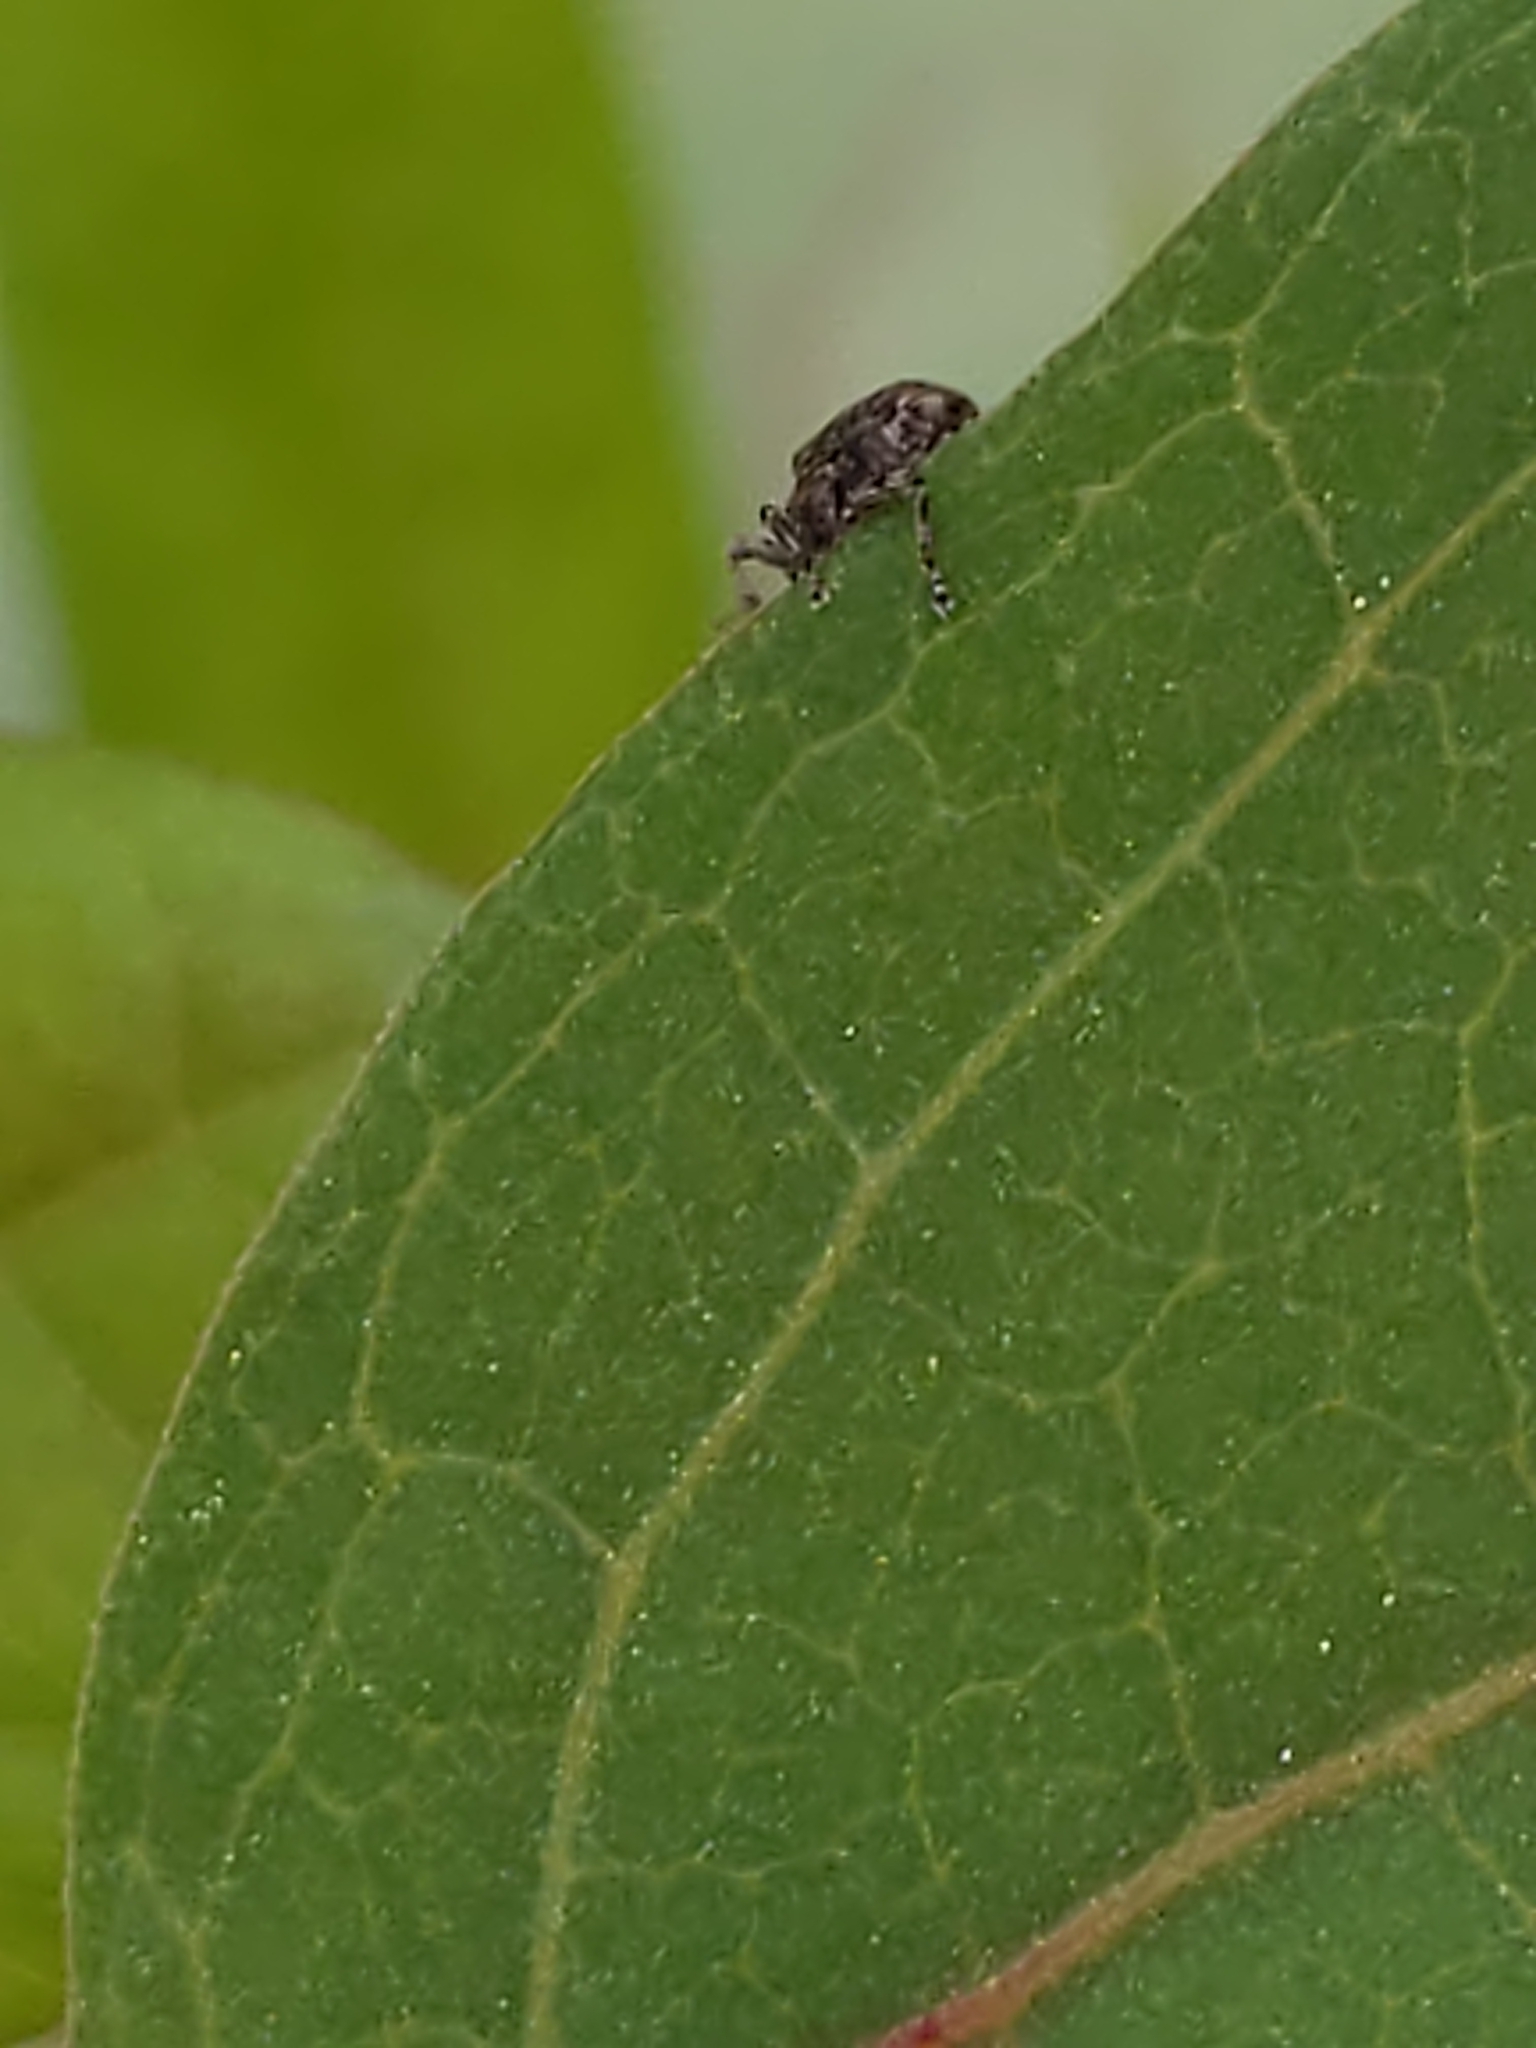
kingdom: Animalia
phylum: Arthropoda
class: Insecta
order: Coleoptera
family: Curculionidae
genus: Lechriops
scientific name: Lechriops oculatus
